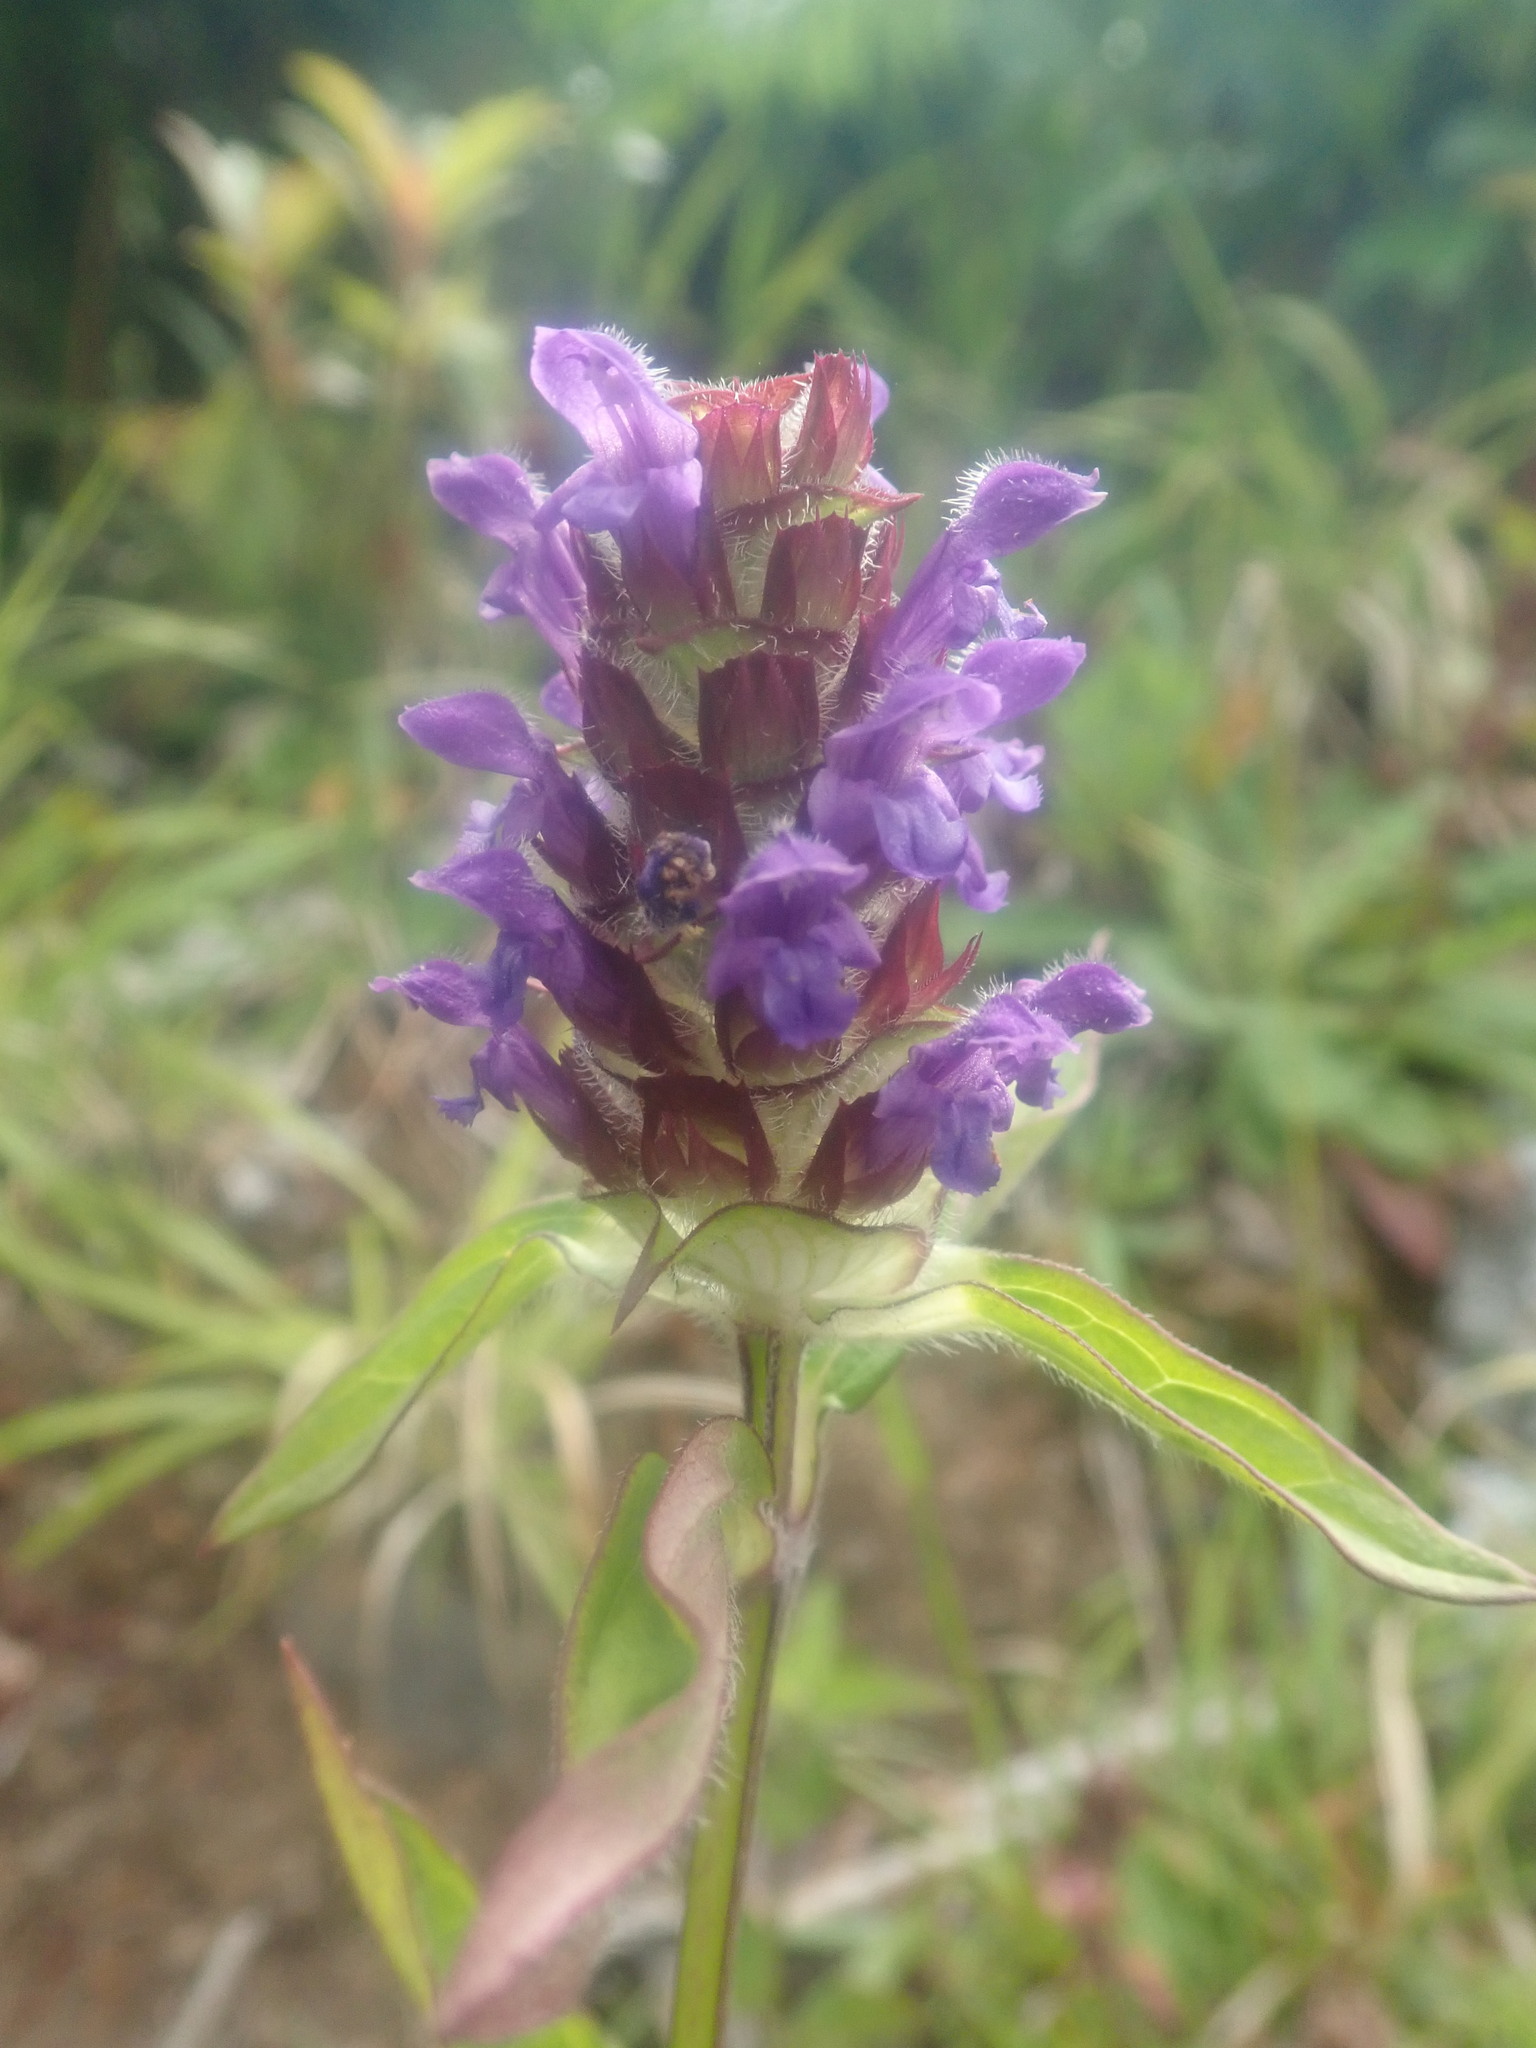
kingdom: Plantae
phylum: Tracheophyta
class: Magnoliopsida
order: Lamiales
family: Lamiaceae
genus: Prunella
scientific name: Prunella vulgaris
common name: Heal-all
